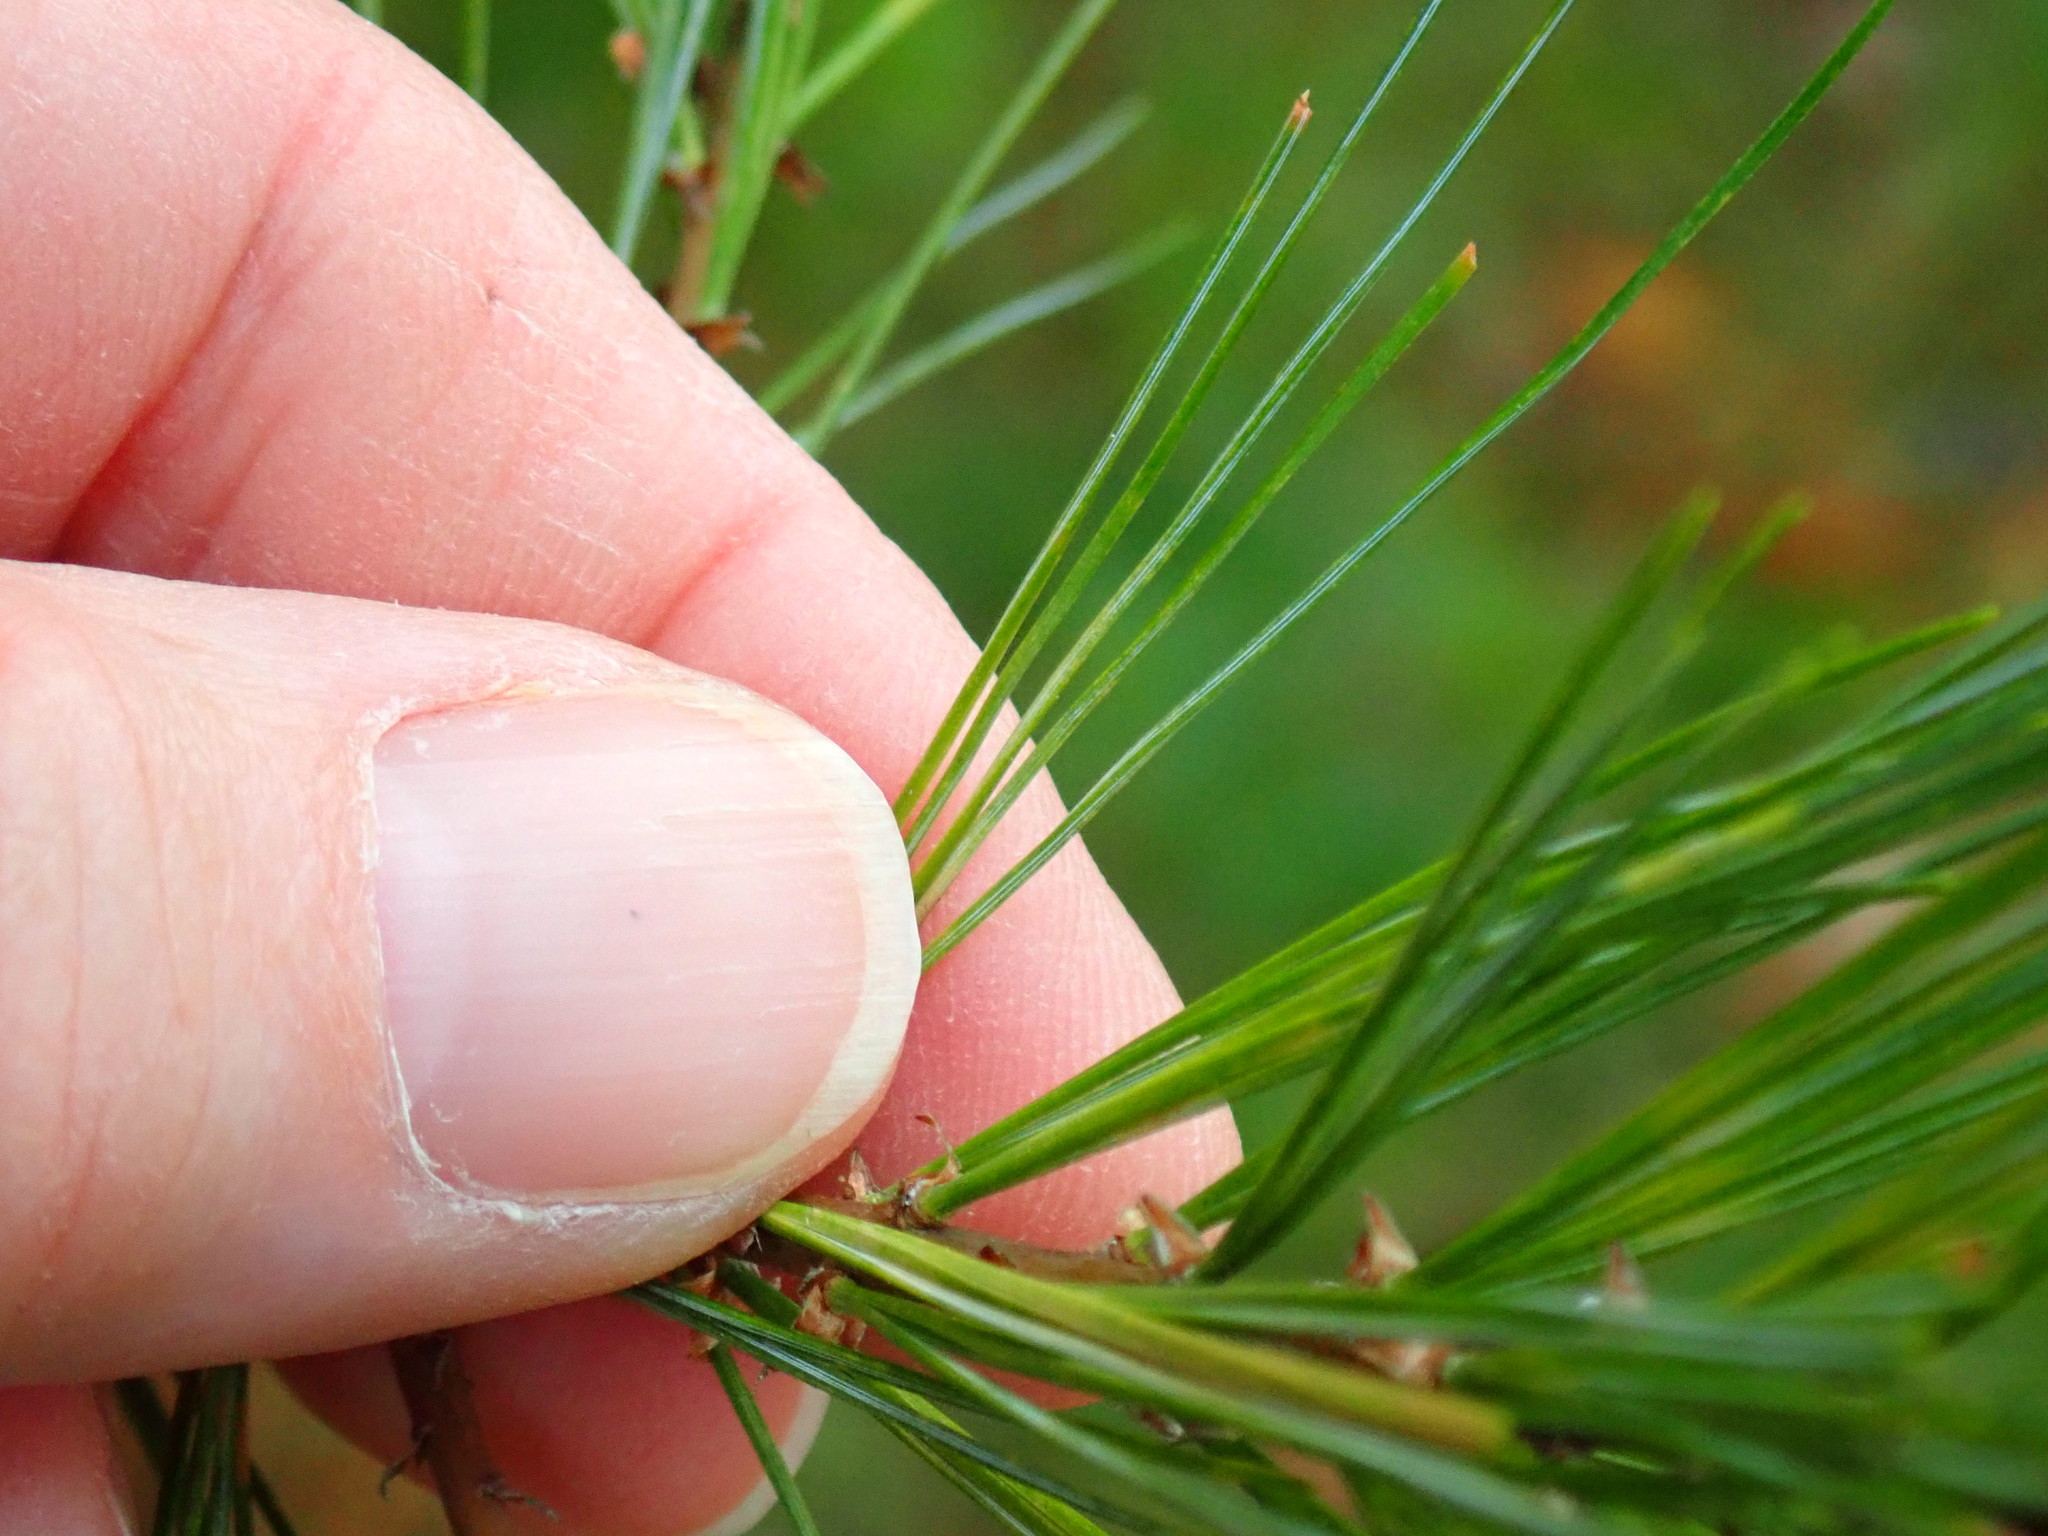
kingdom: Plantae
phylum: Tracheophyta
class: Pinopsida
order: Pinales
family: Pinaceae
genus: Pinus
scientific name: Pinus strobus
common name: Weymouth pine
